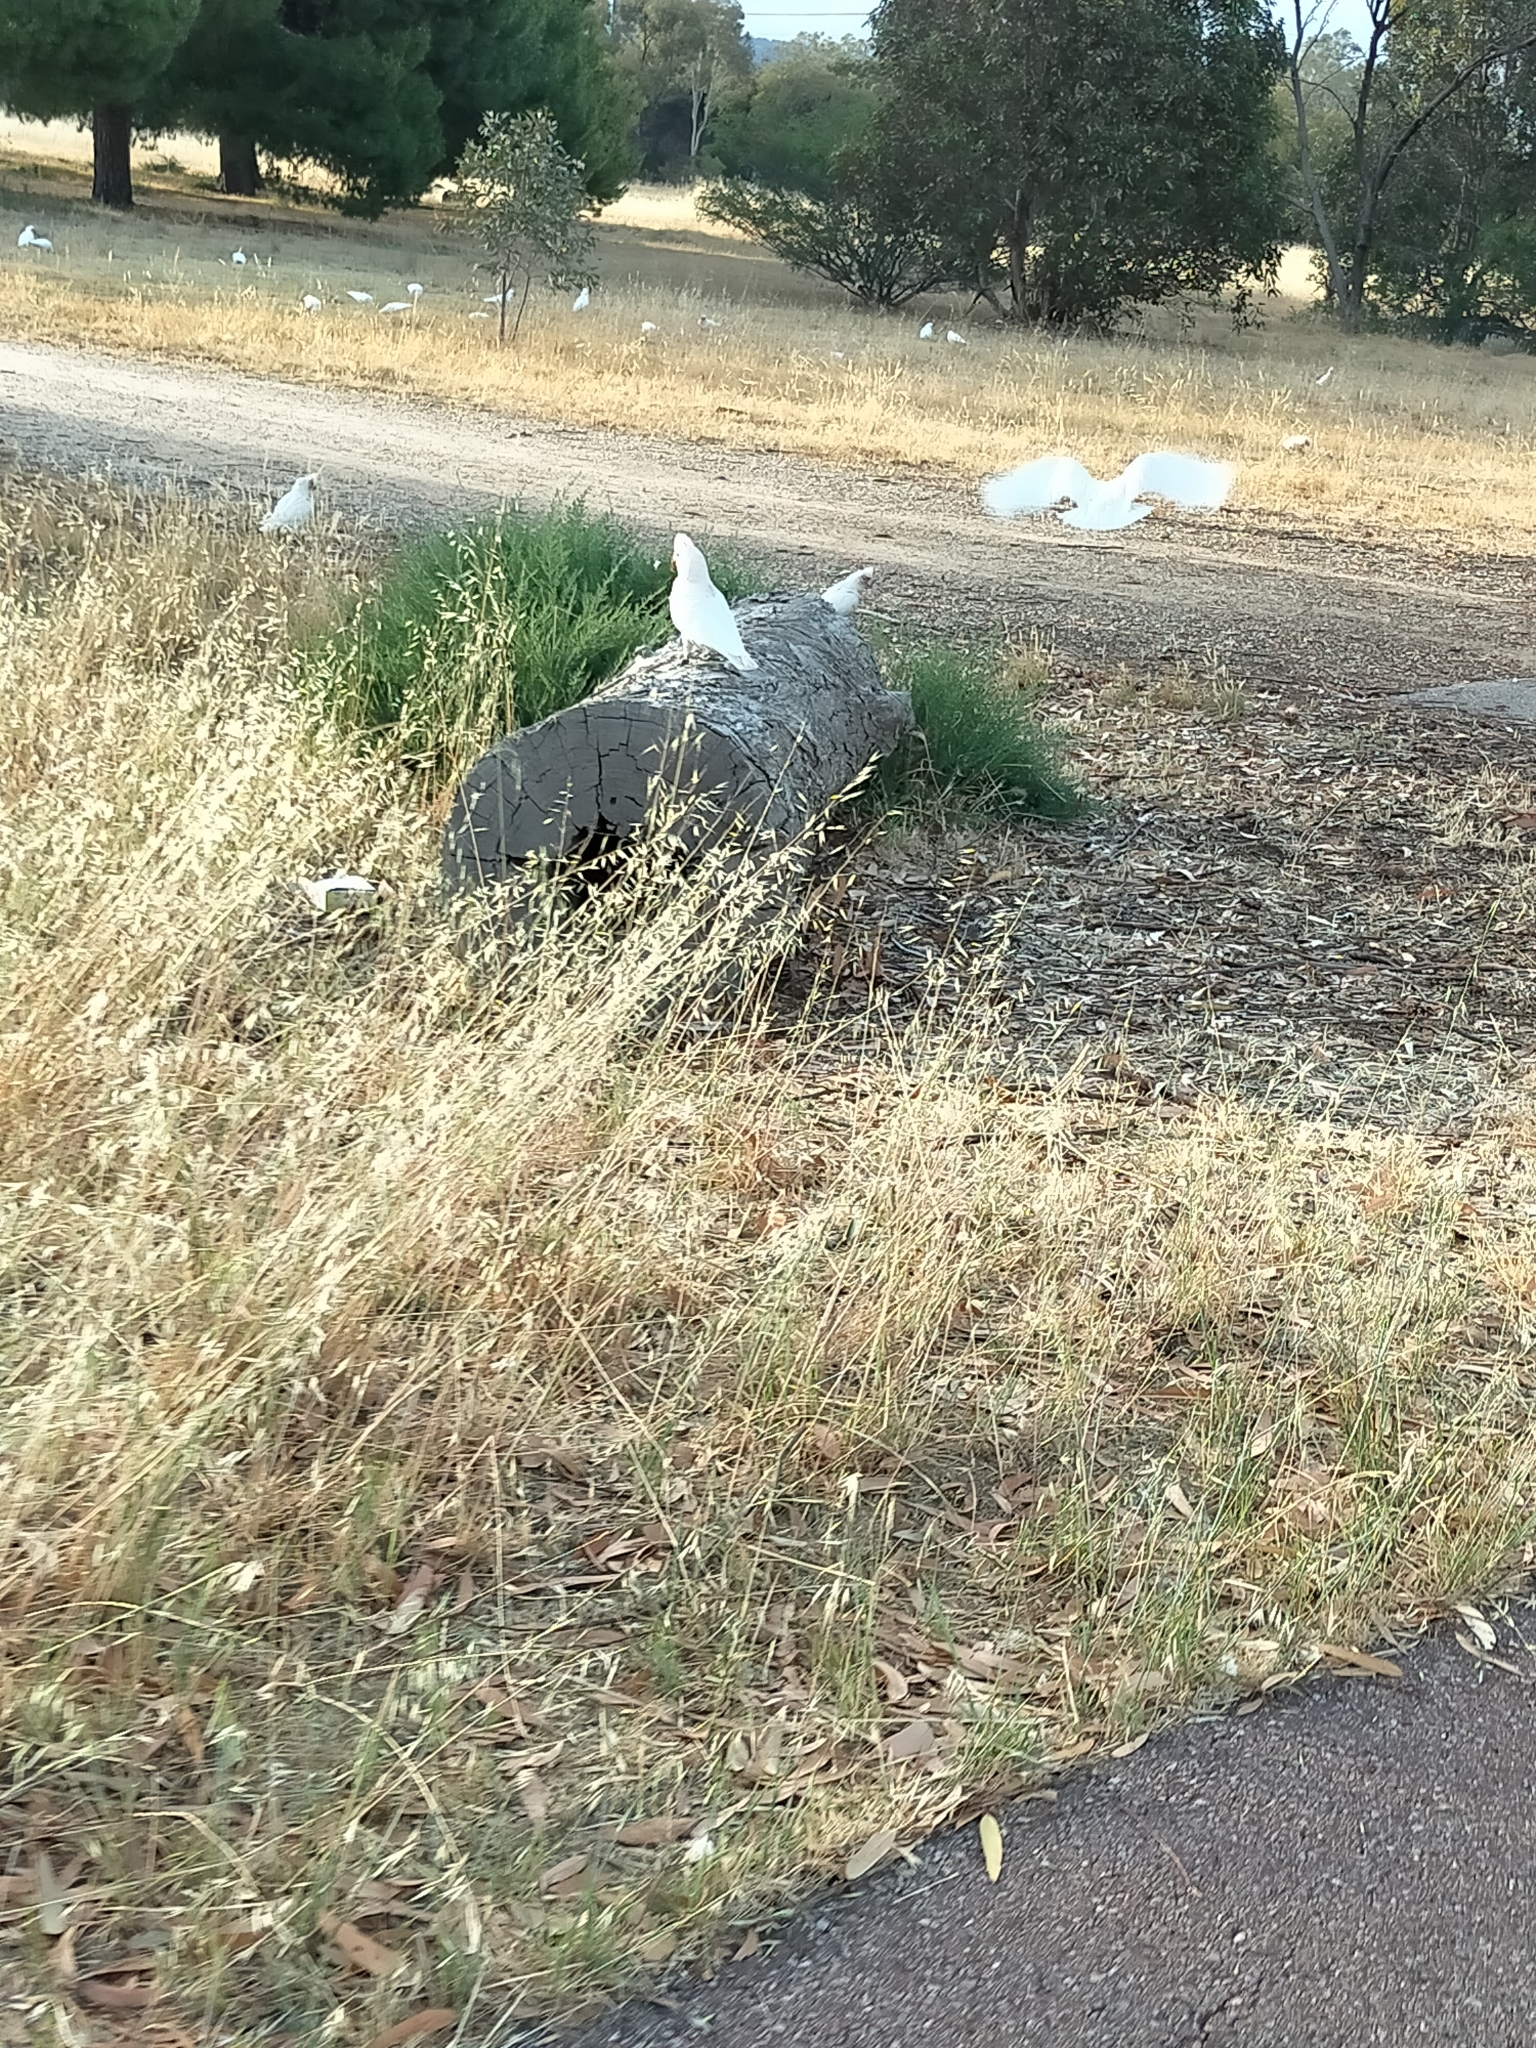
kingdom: Animalia
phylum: Chordata
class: Aves
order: Psittaciformes
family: Psittacidae
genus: Cacatua
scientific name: Cacatua tenuirostris
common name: Long-billed corella
